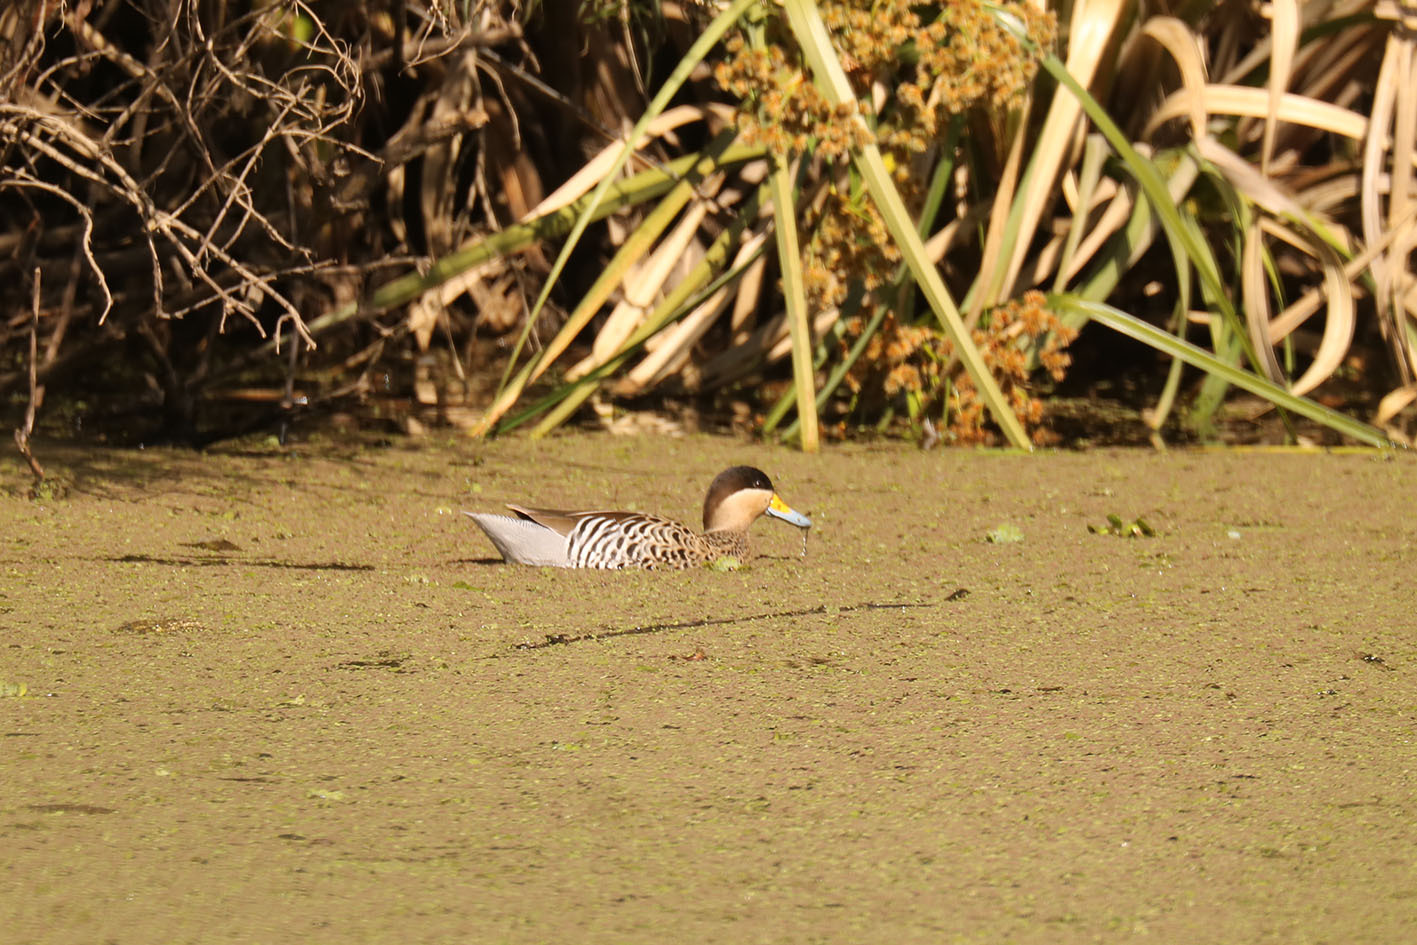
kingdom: Animalia
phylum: Chordata
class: Aves
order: Anseriformes
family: Anatidae
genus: Spatula
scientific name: Spatula versicolor
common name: Silver teal
